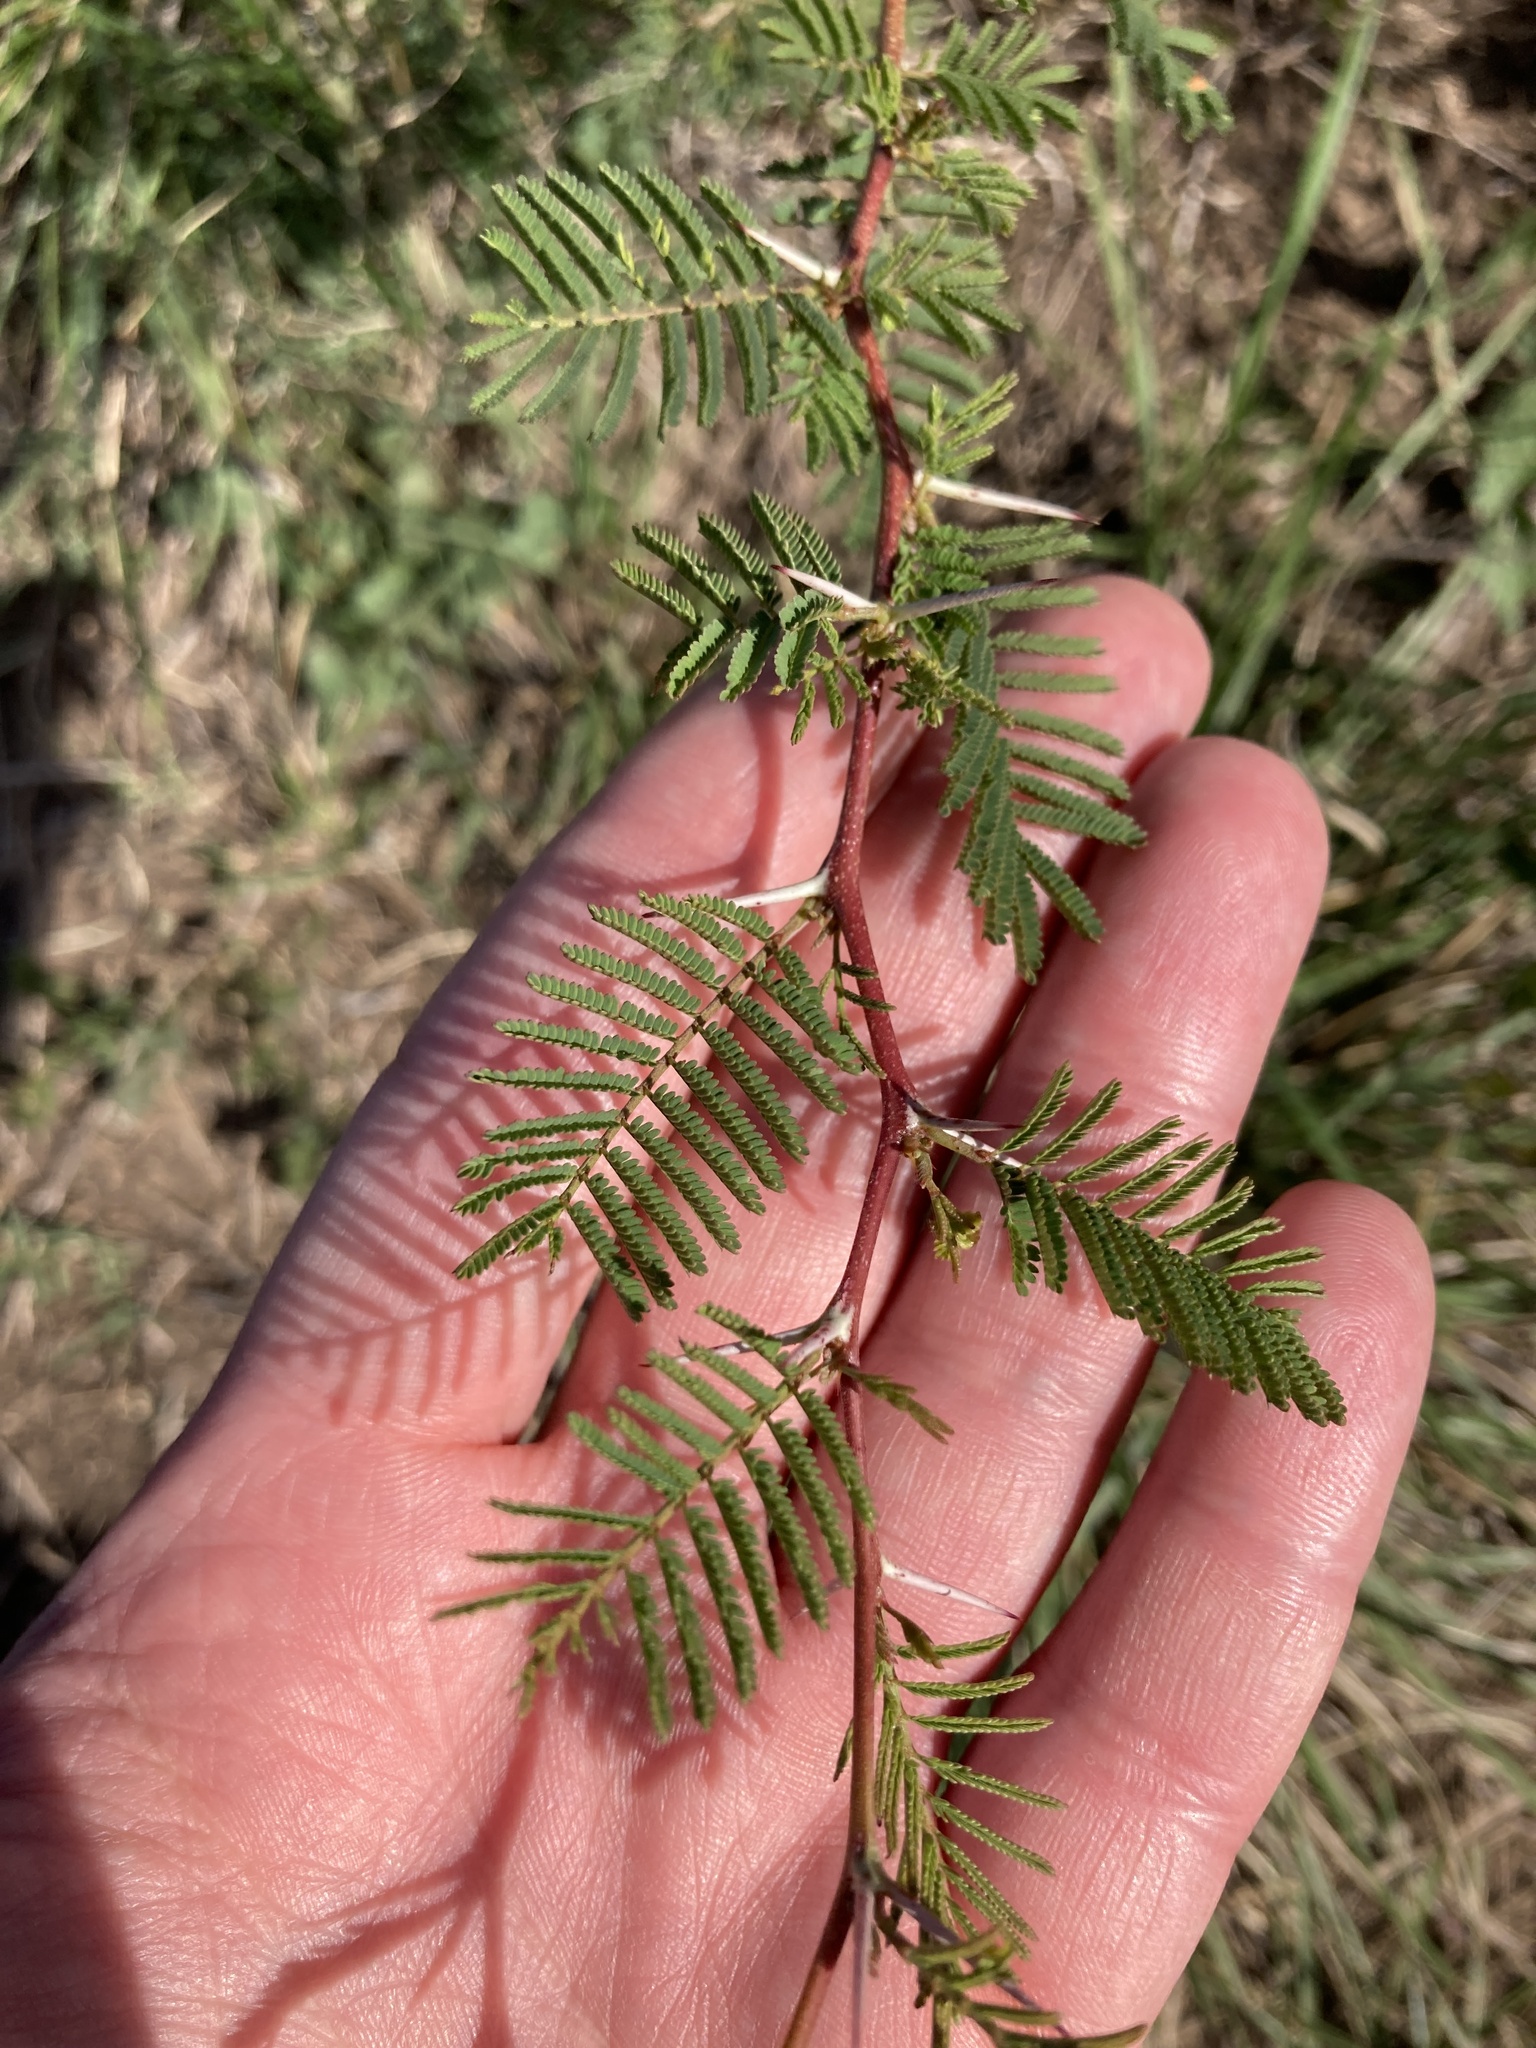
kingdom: Plantae
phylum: Tracheophyta
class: Magnoliopsida
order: Fabales
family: Fabaceae
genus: Vachellia
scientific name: Vachellia caven
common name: Roman cassie
